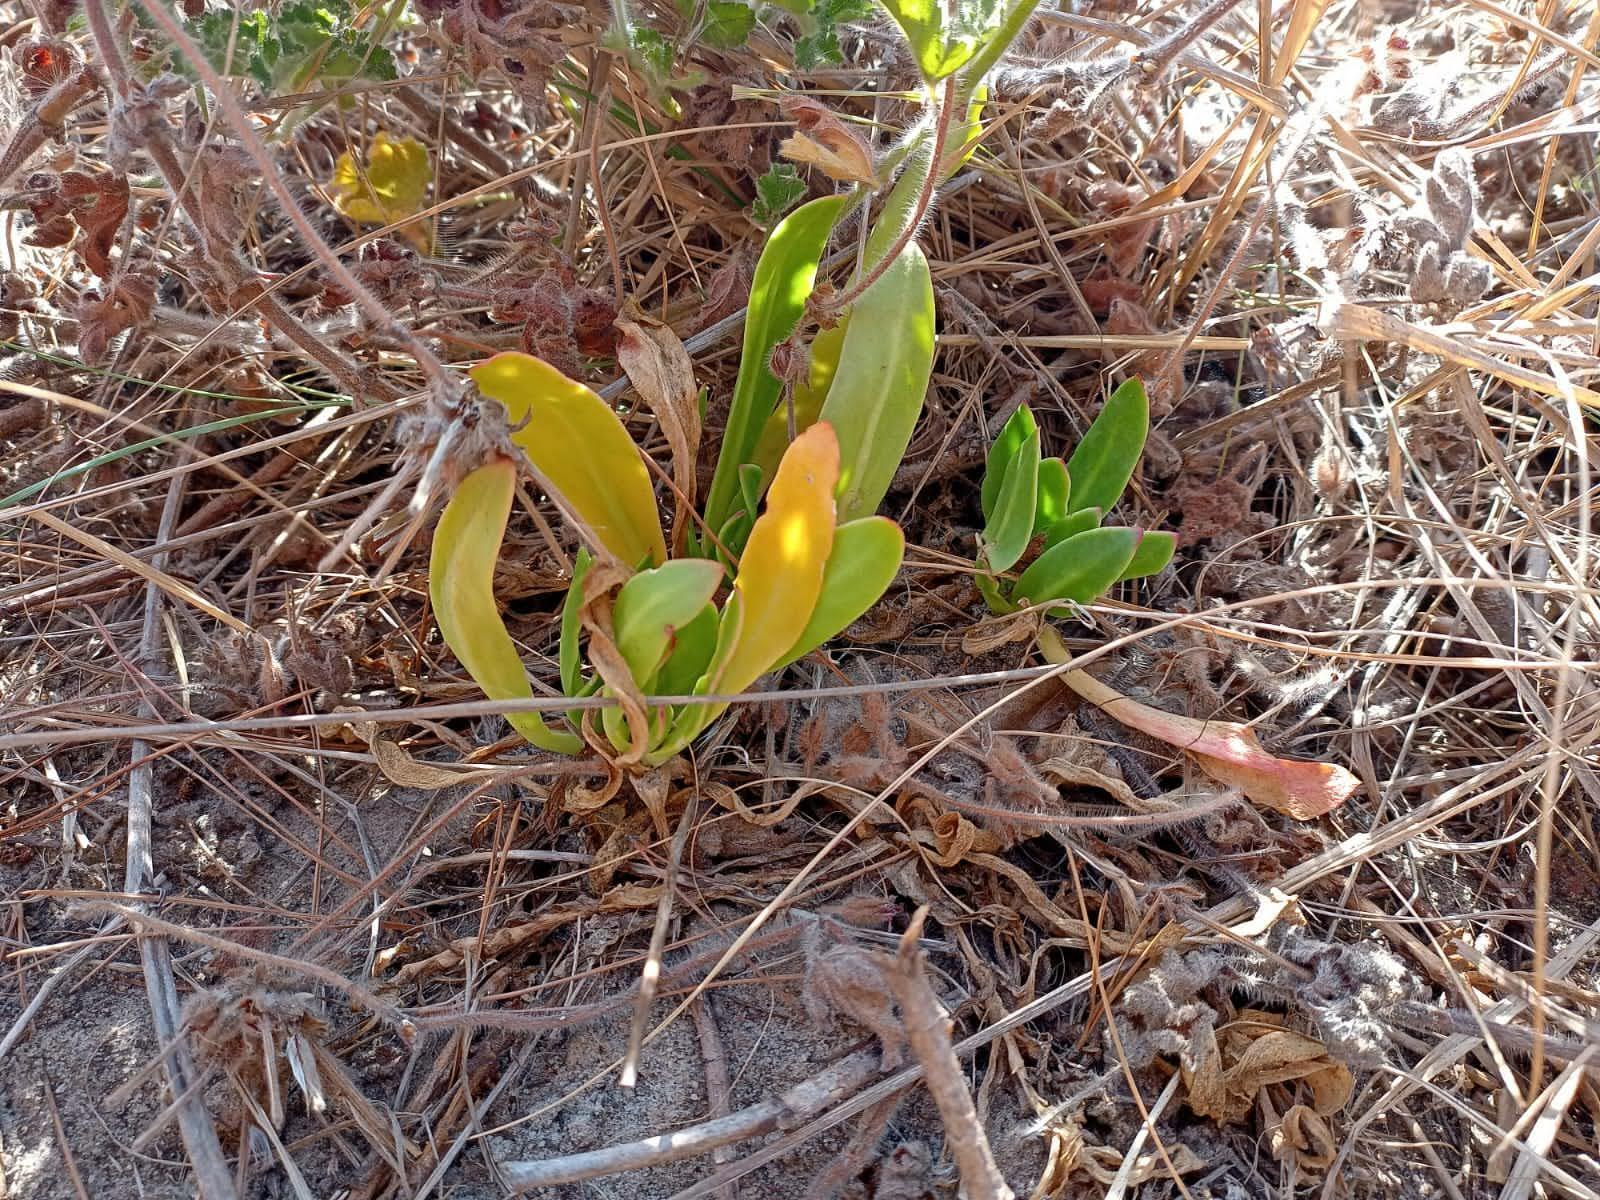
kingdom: Plantae
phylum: Tracheophyta
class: Magnoliopsida
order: Caryophyllales
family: Aizoaceae
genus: Skiatophytum
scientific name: Skiatophytum tripolium
